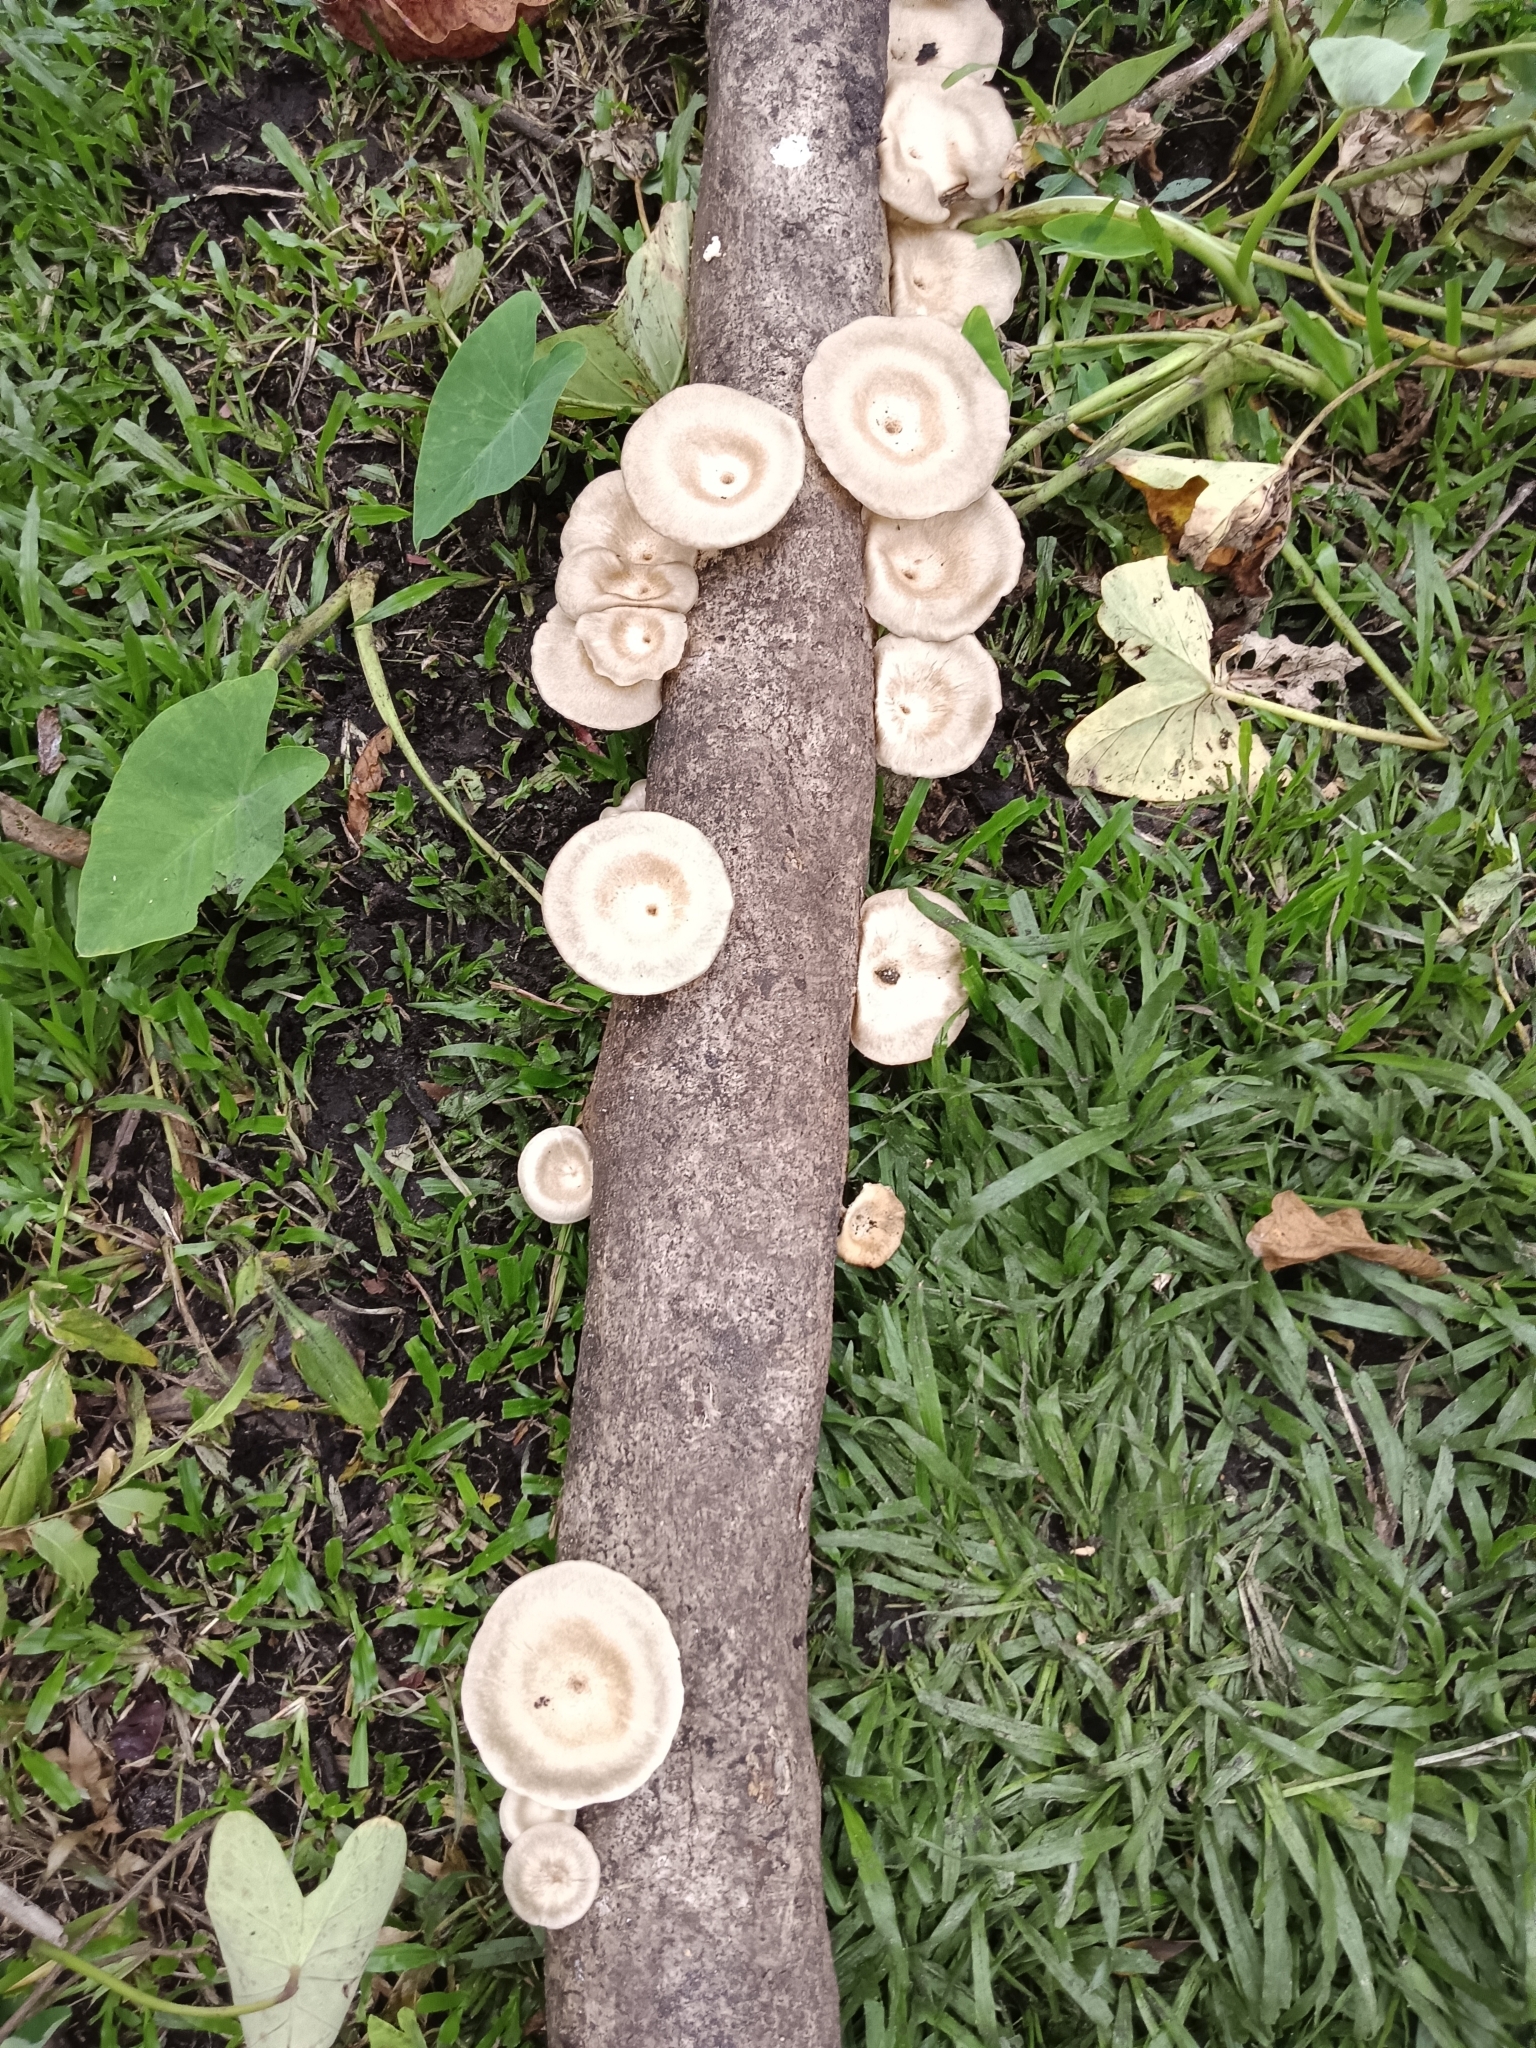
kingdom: Fungi
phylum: Basidiomycota
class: Agaricomycetes
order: Polyporales
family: Polyporaceae
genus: Lentinus
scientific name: Lentinus sajor-caju
